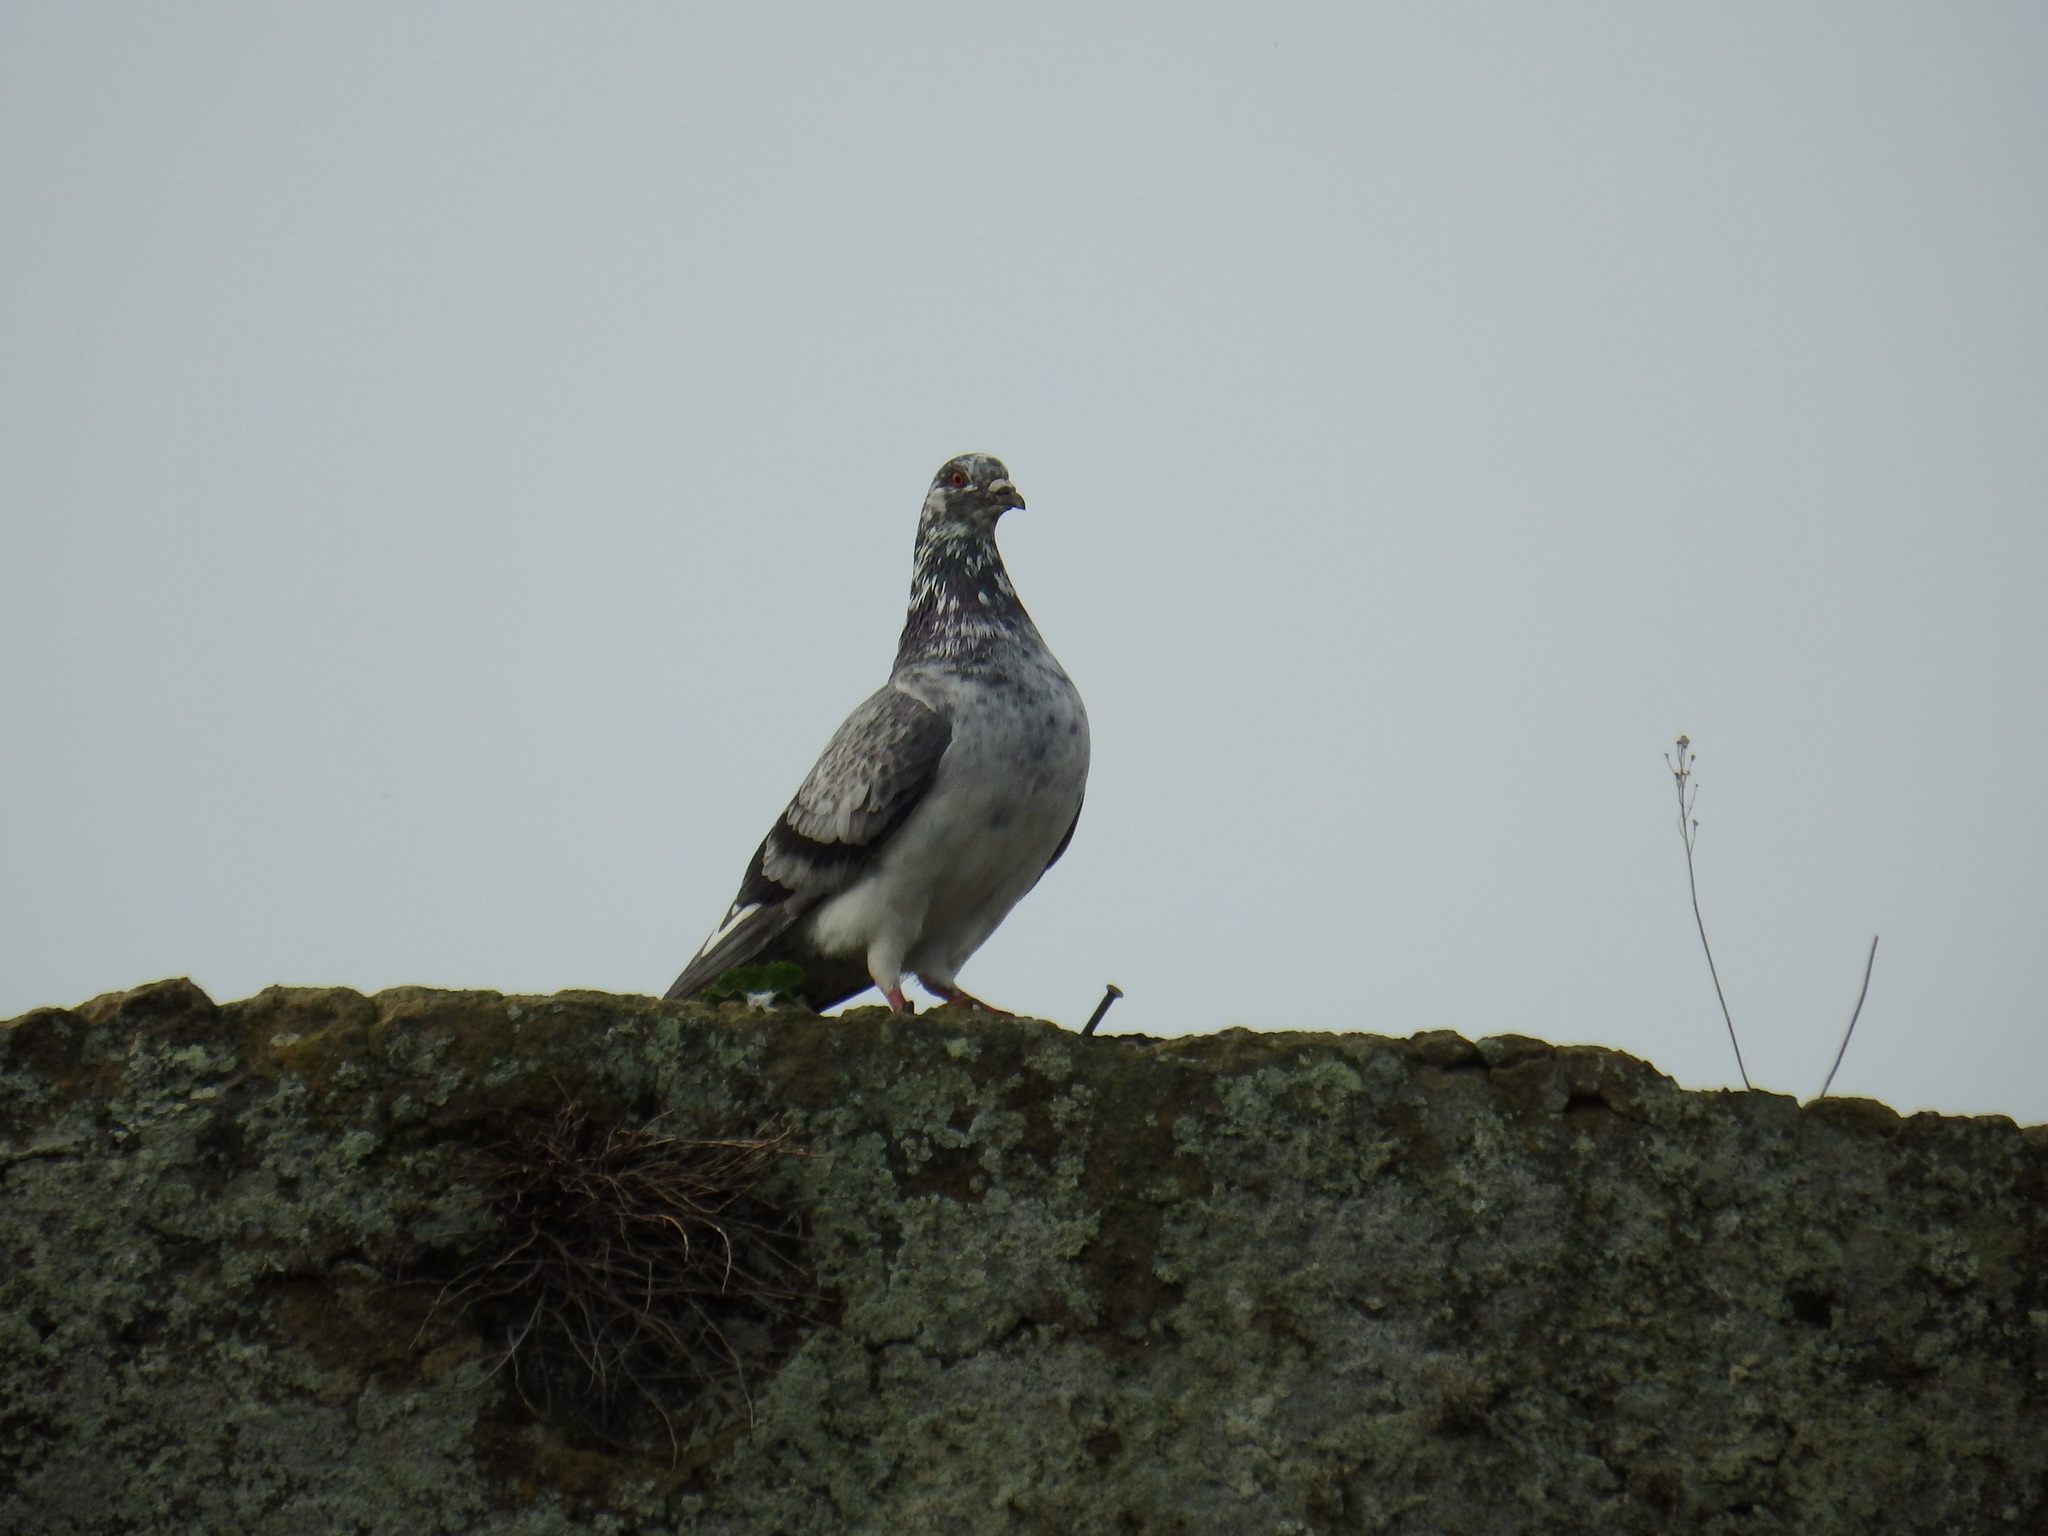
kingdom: Animalia
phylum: Chordata
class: Aves
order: Columbiformes
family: Columbidae
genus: Columba
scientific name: Columba livia
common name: Rock pigeon
